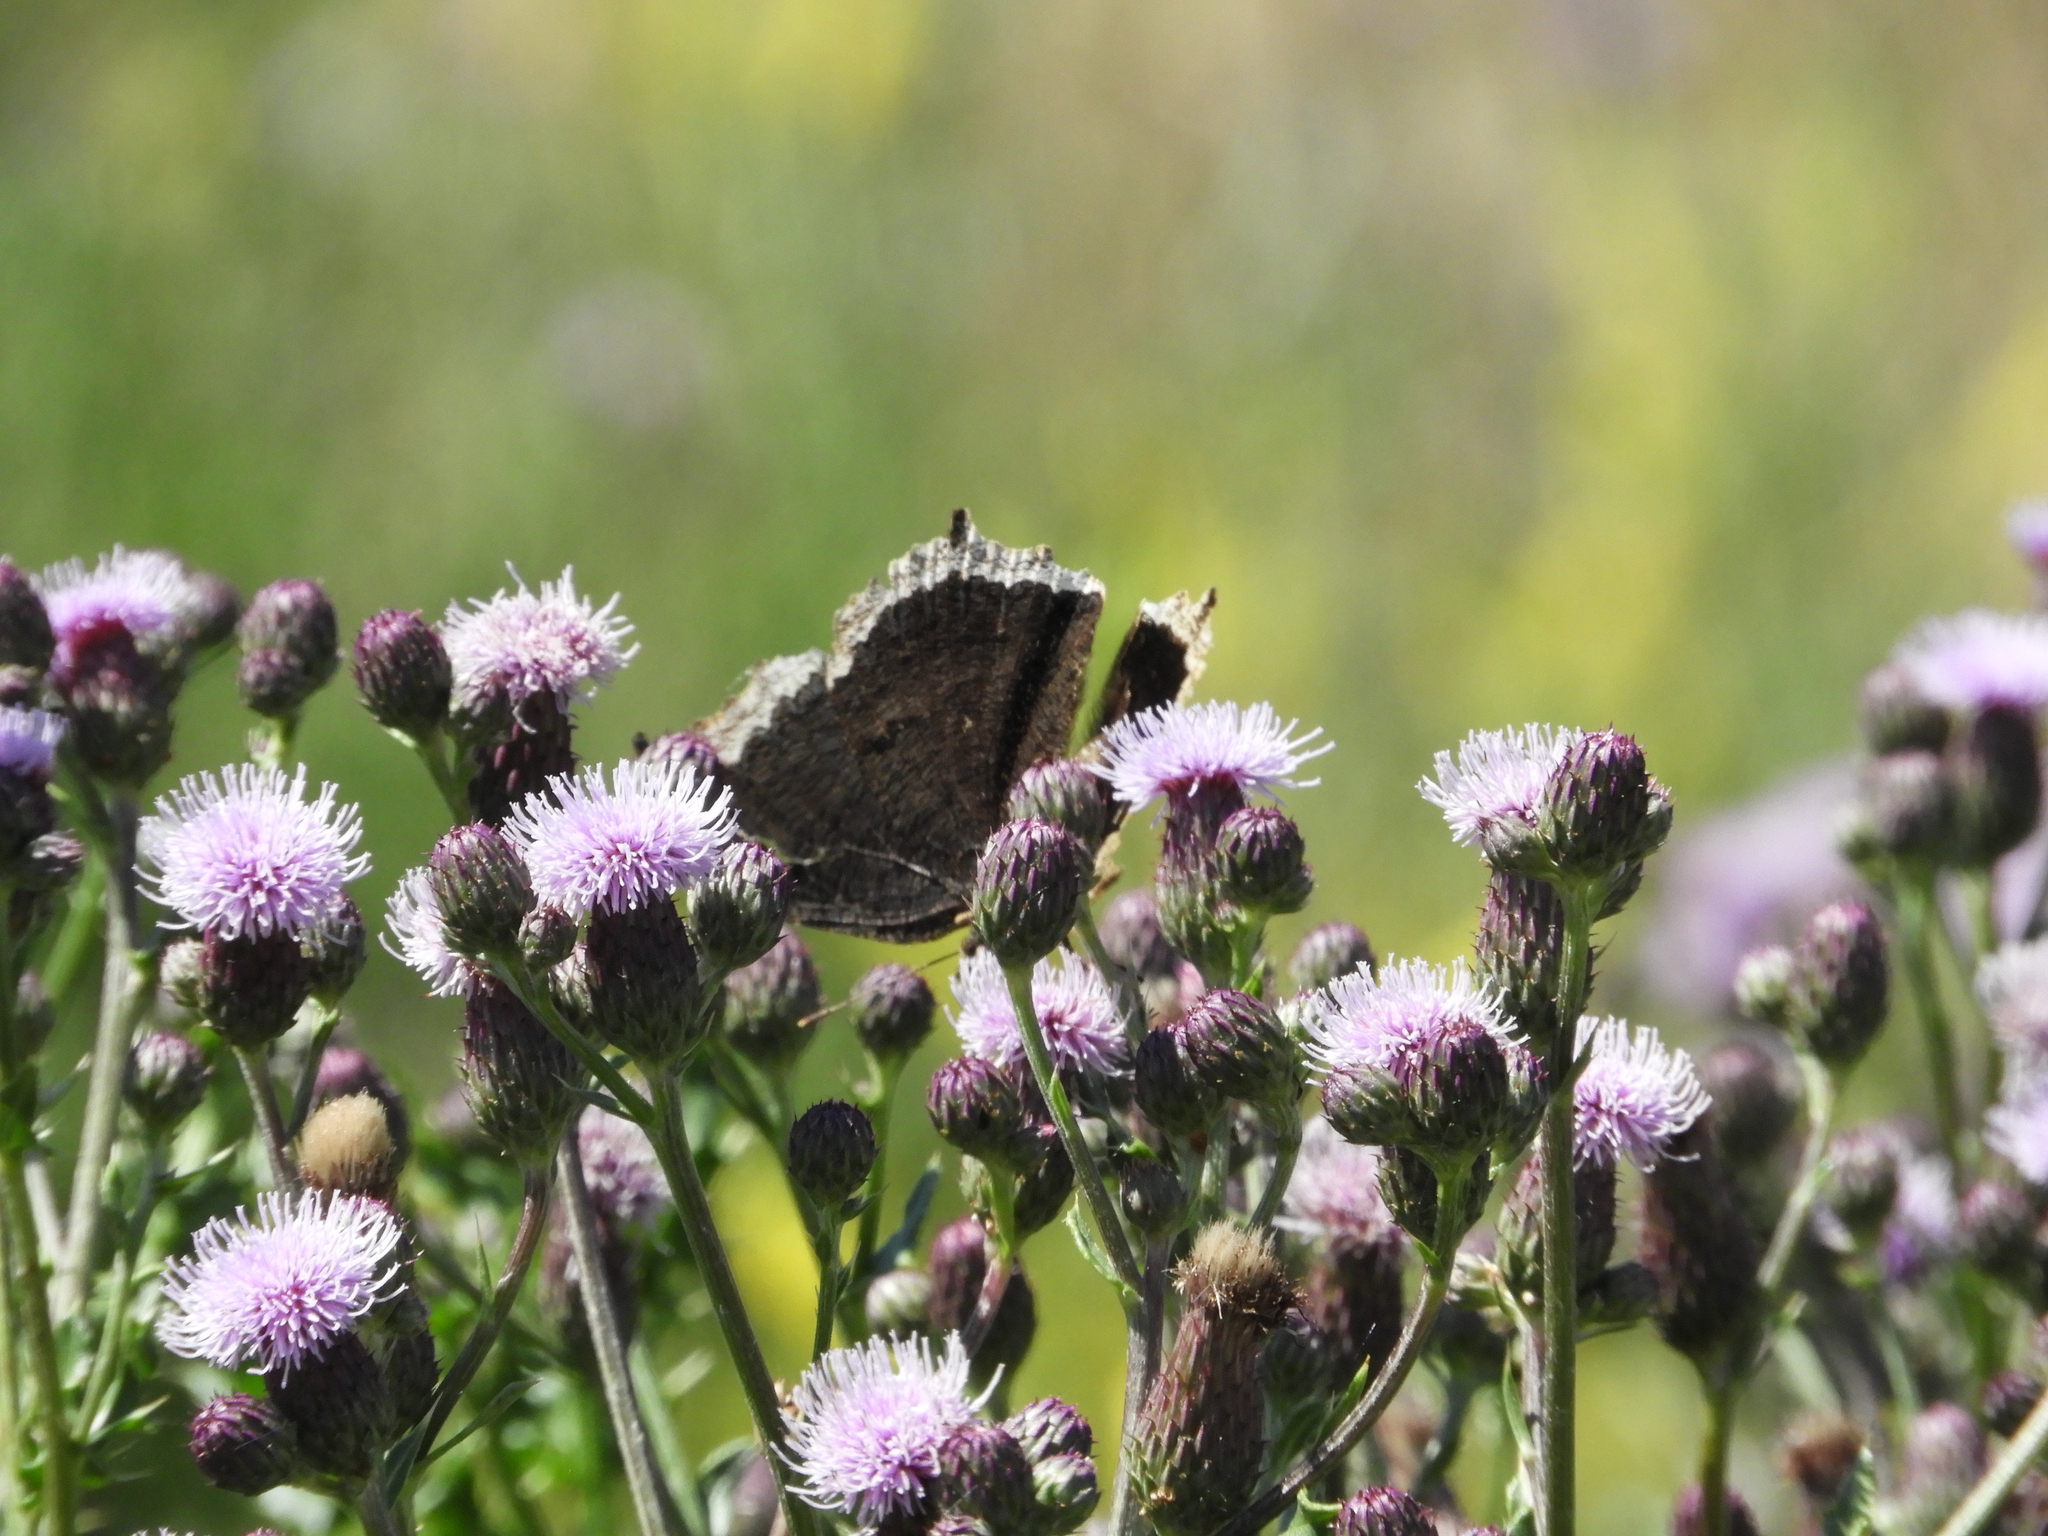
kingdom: Animalia
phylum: Arthropoda
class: Insecta
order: Lepidoptera
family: Nymphalidae
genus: Nymphalis
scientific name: Nymphalis antiopa
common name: Camberwell beauty
